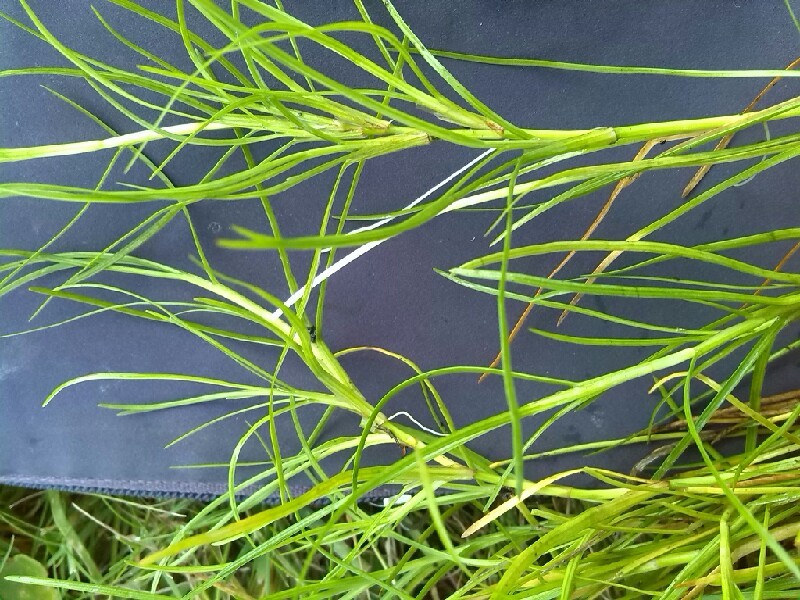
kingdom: Plantae
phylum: Tracheophyta
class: Liliopsida
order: Poales
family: Cyperaceae
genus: Isolepis
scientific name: Isolepis fluitans
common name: Floating club-rush
